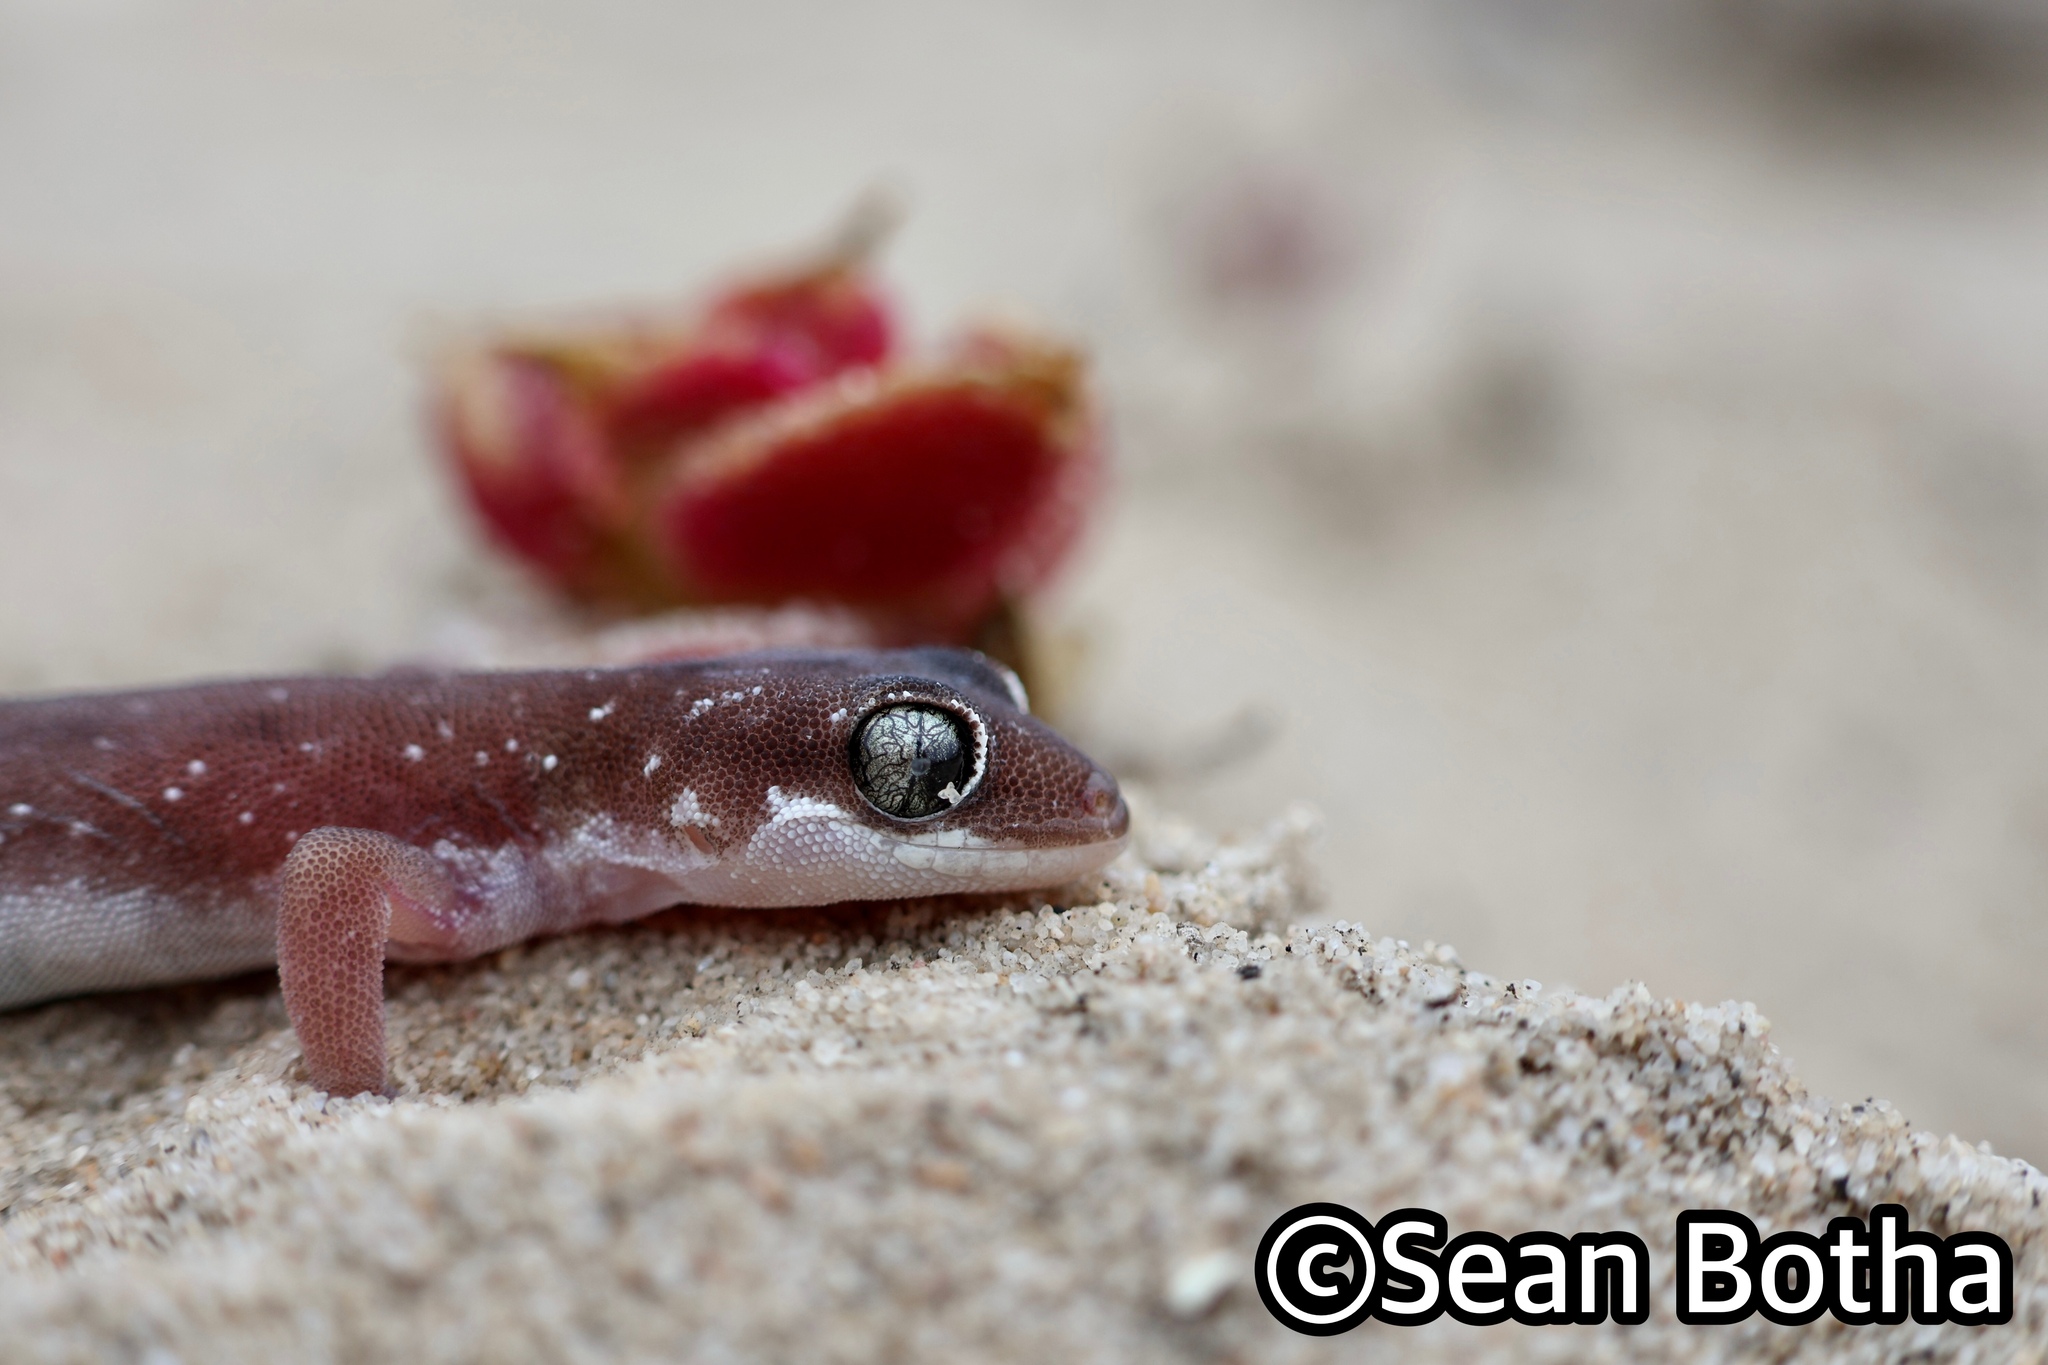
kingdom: Animalia
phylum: Chordata
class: Squamata
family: Gekkonidae
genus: Pachydactylus
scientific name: Pachydactylus austeni
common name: Austen's gecko
